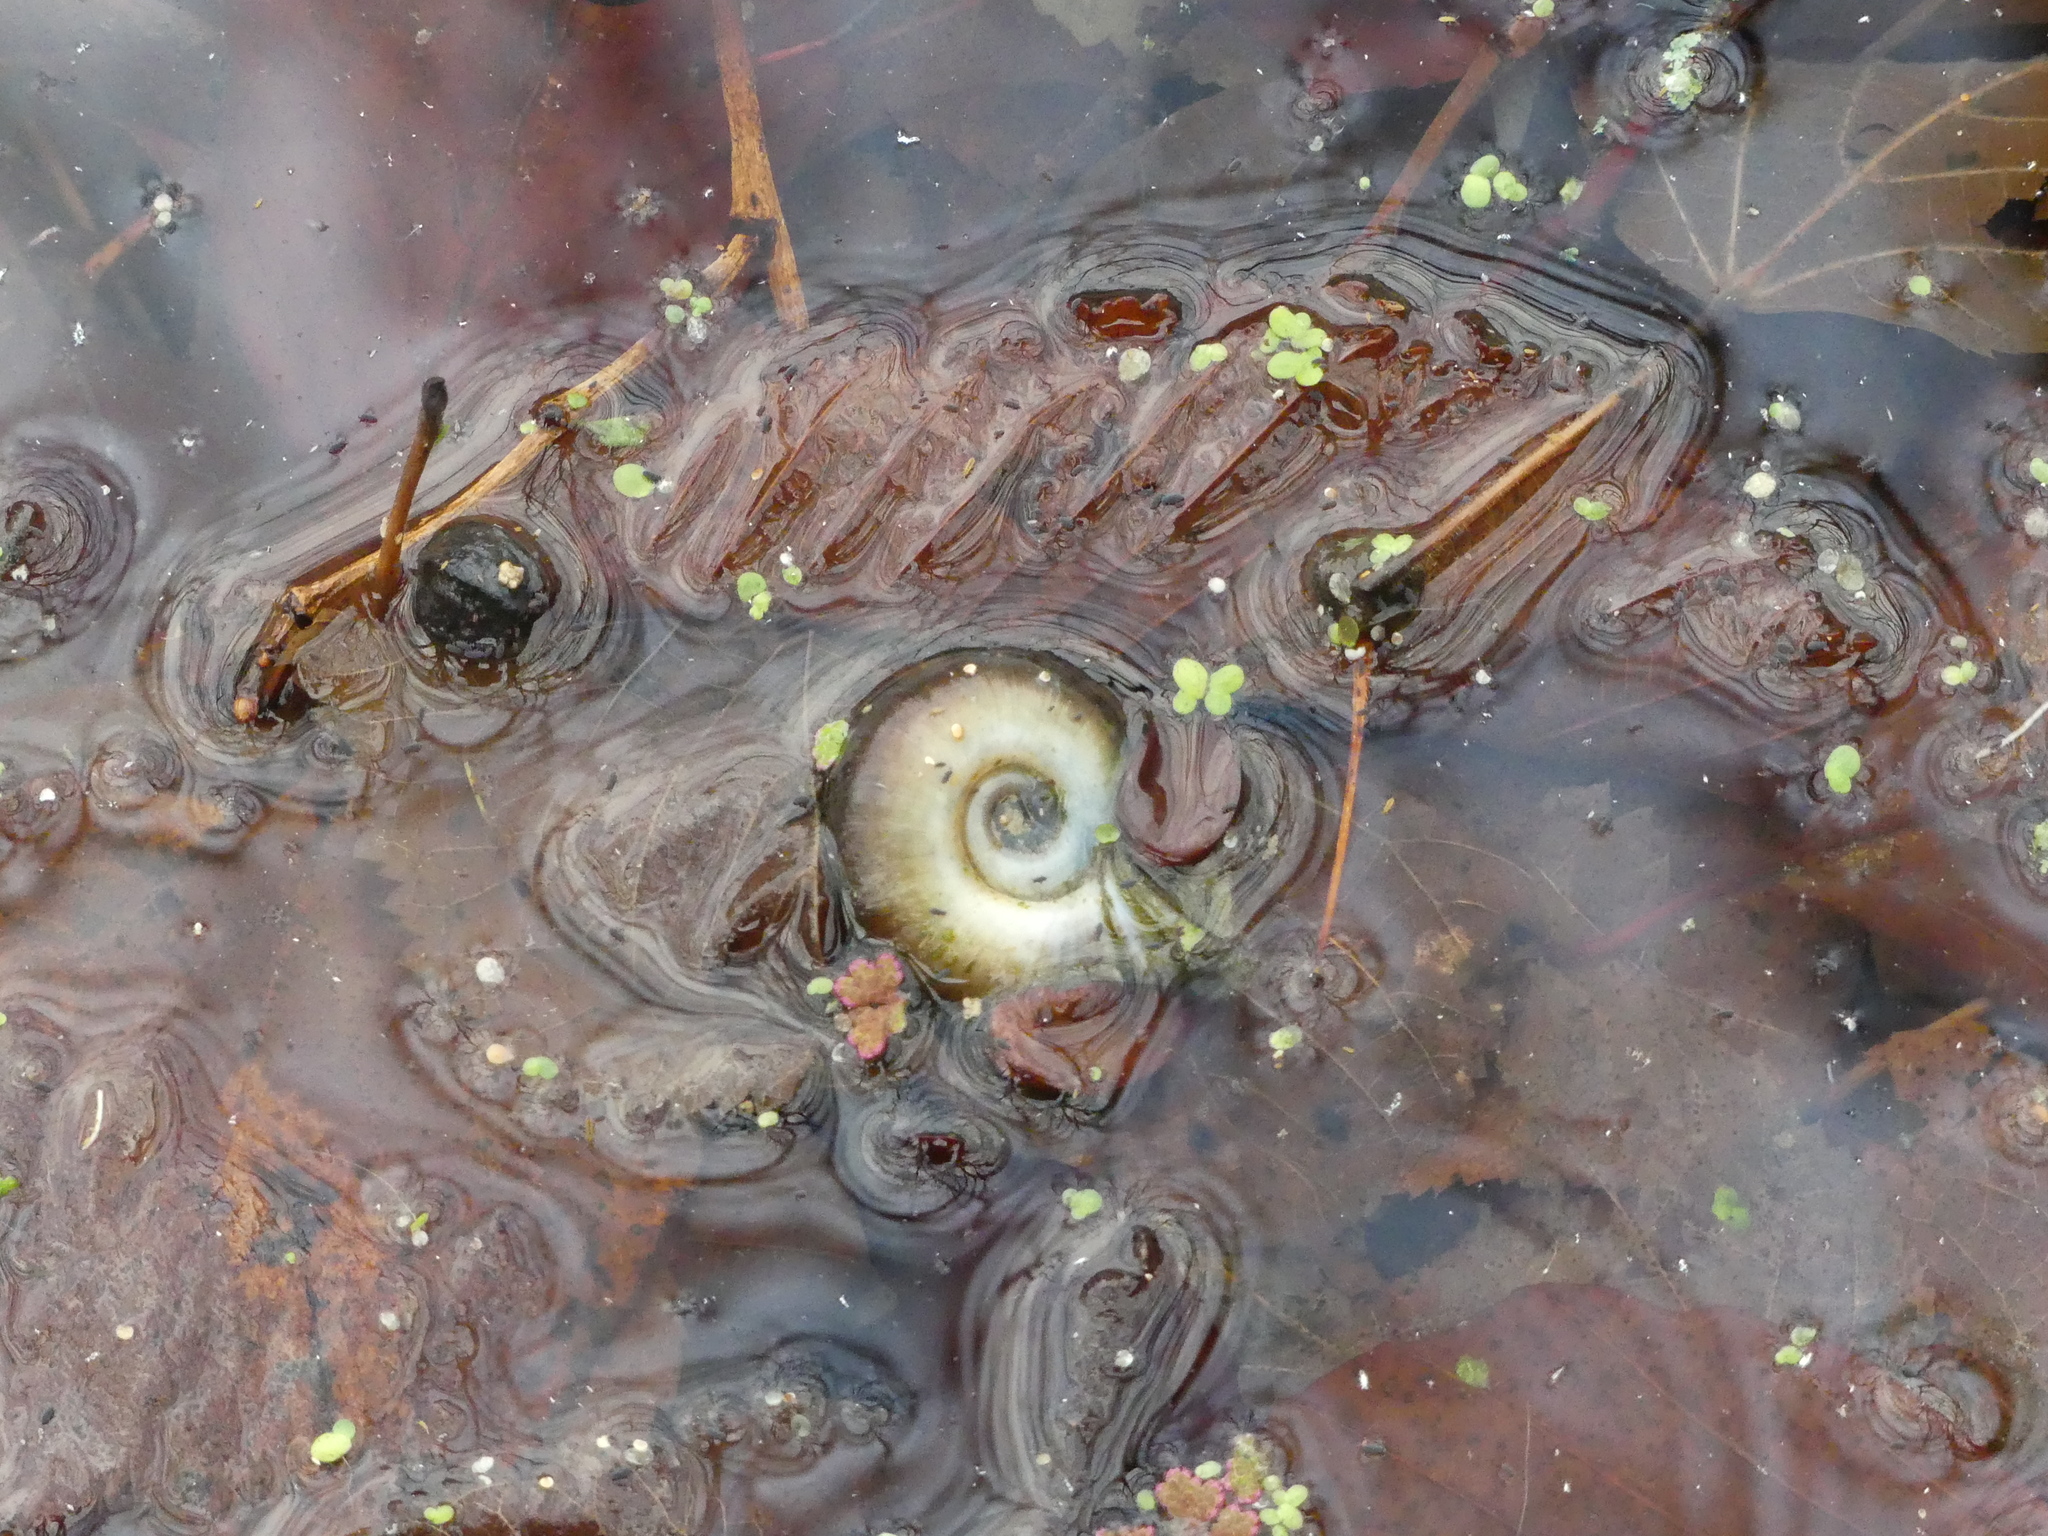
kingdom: Animalia
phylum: Mollusca
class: Gastropoda
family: Planorbidae
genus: Planorbarius
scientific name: Planorbarius corneus
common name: Great ramshorn
